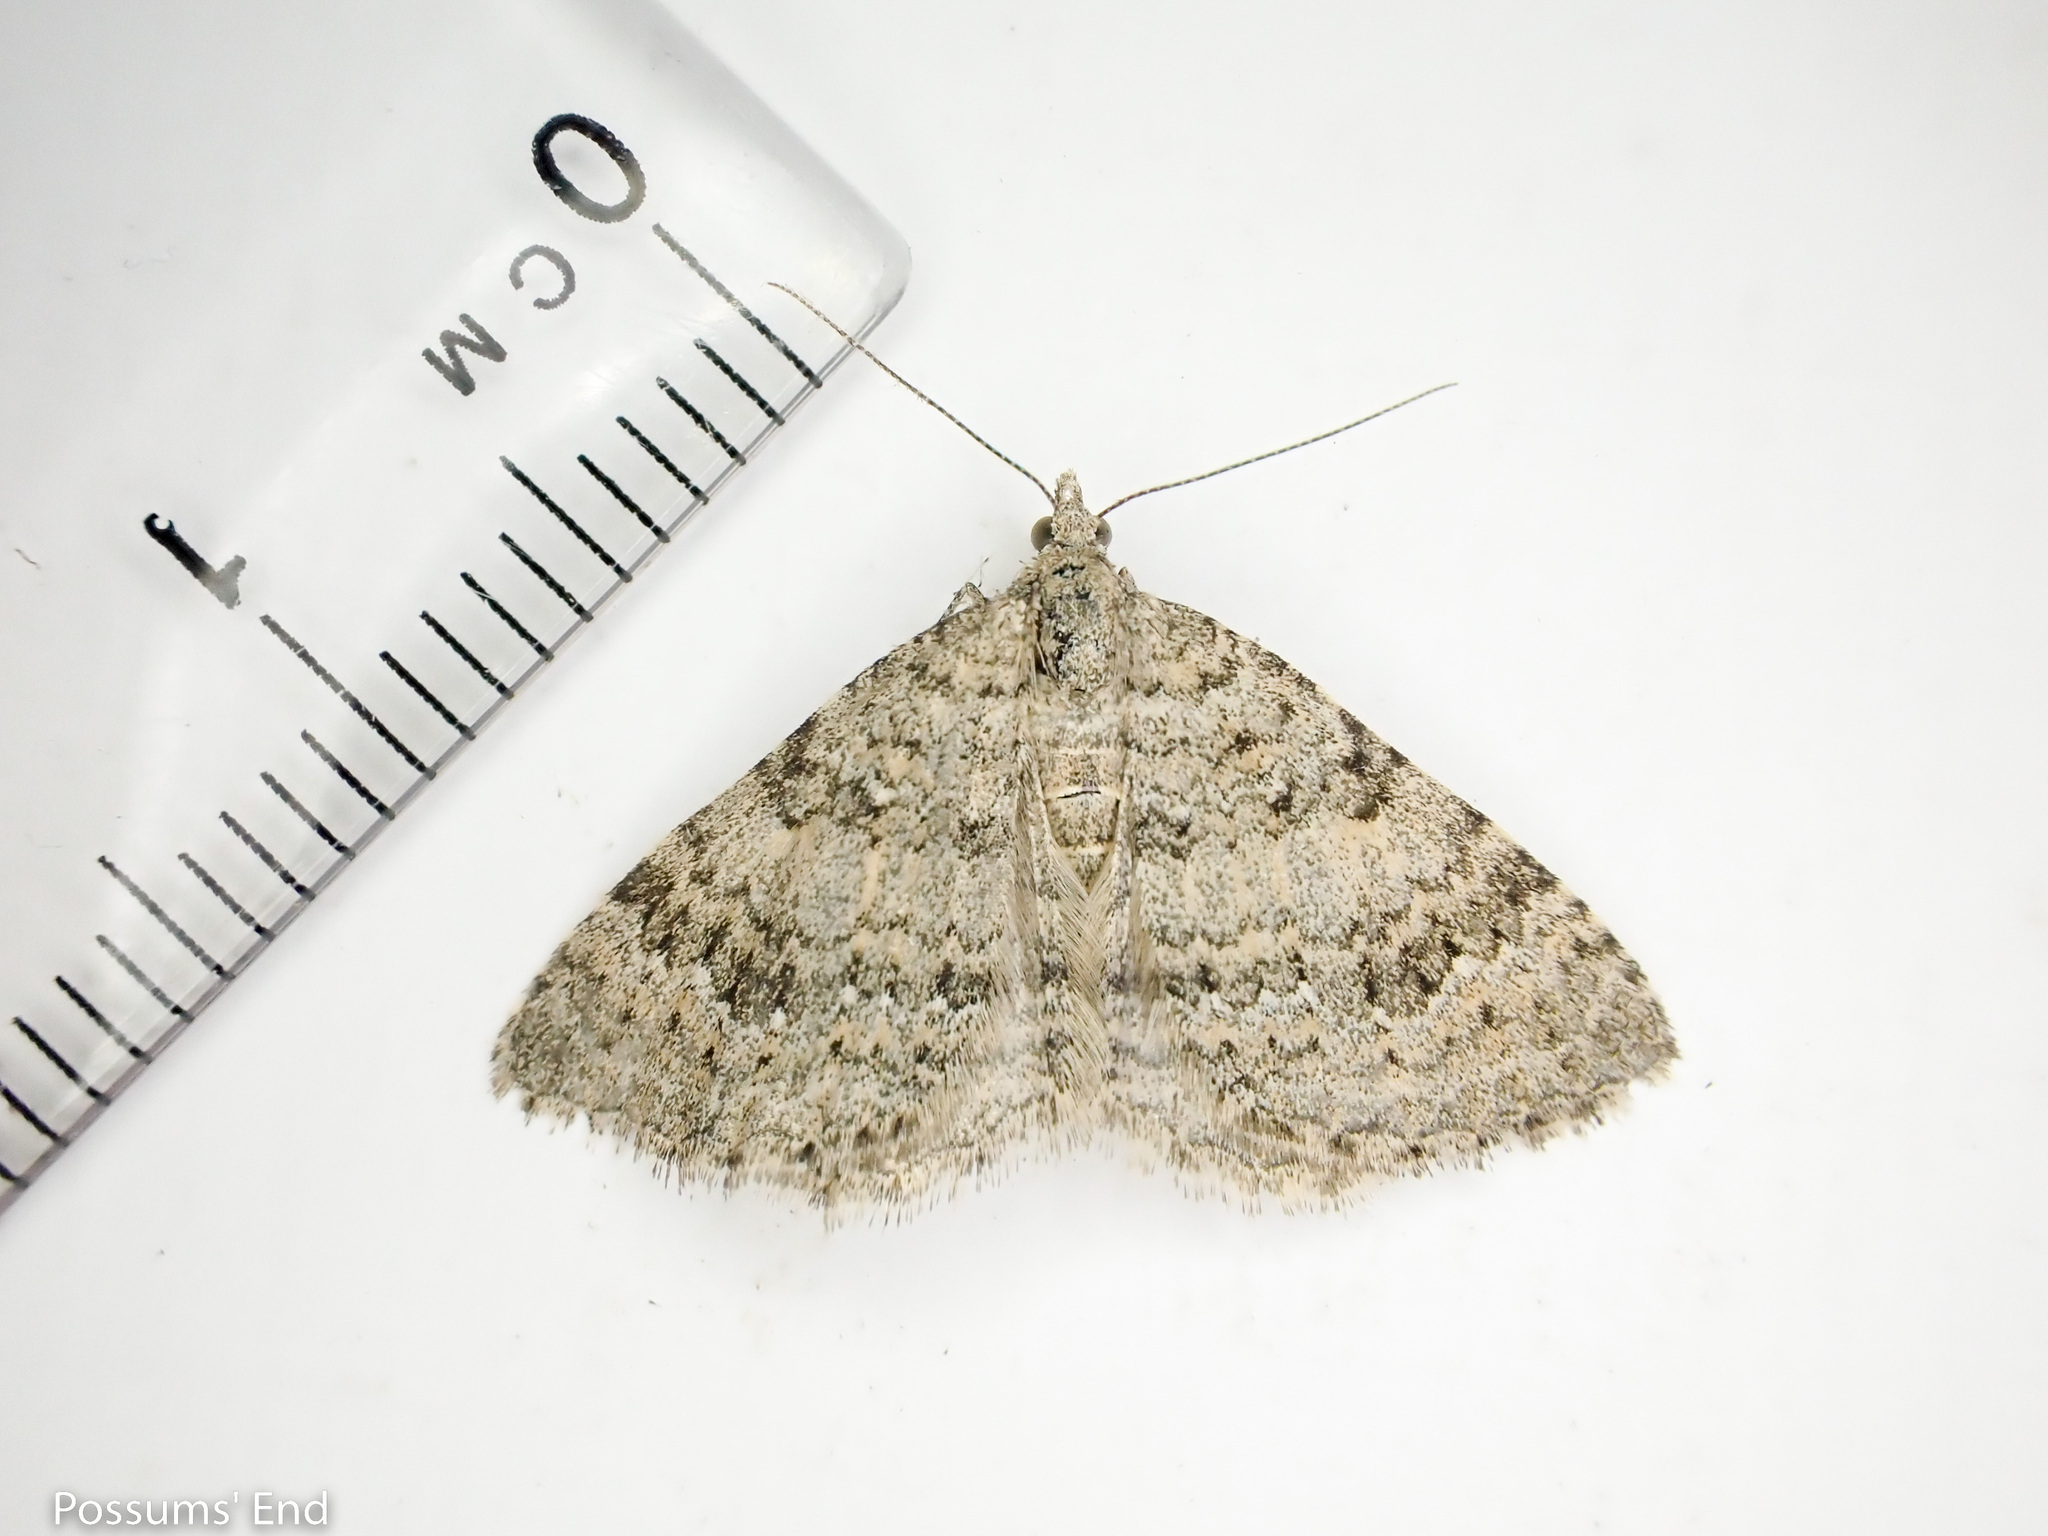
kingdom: Animalia
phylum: Arthropoda
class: Insecta
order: Lepidoptera
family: Geometridae
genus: Helastia
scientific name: Helastia corcularia
